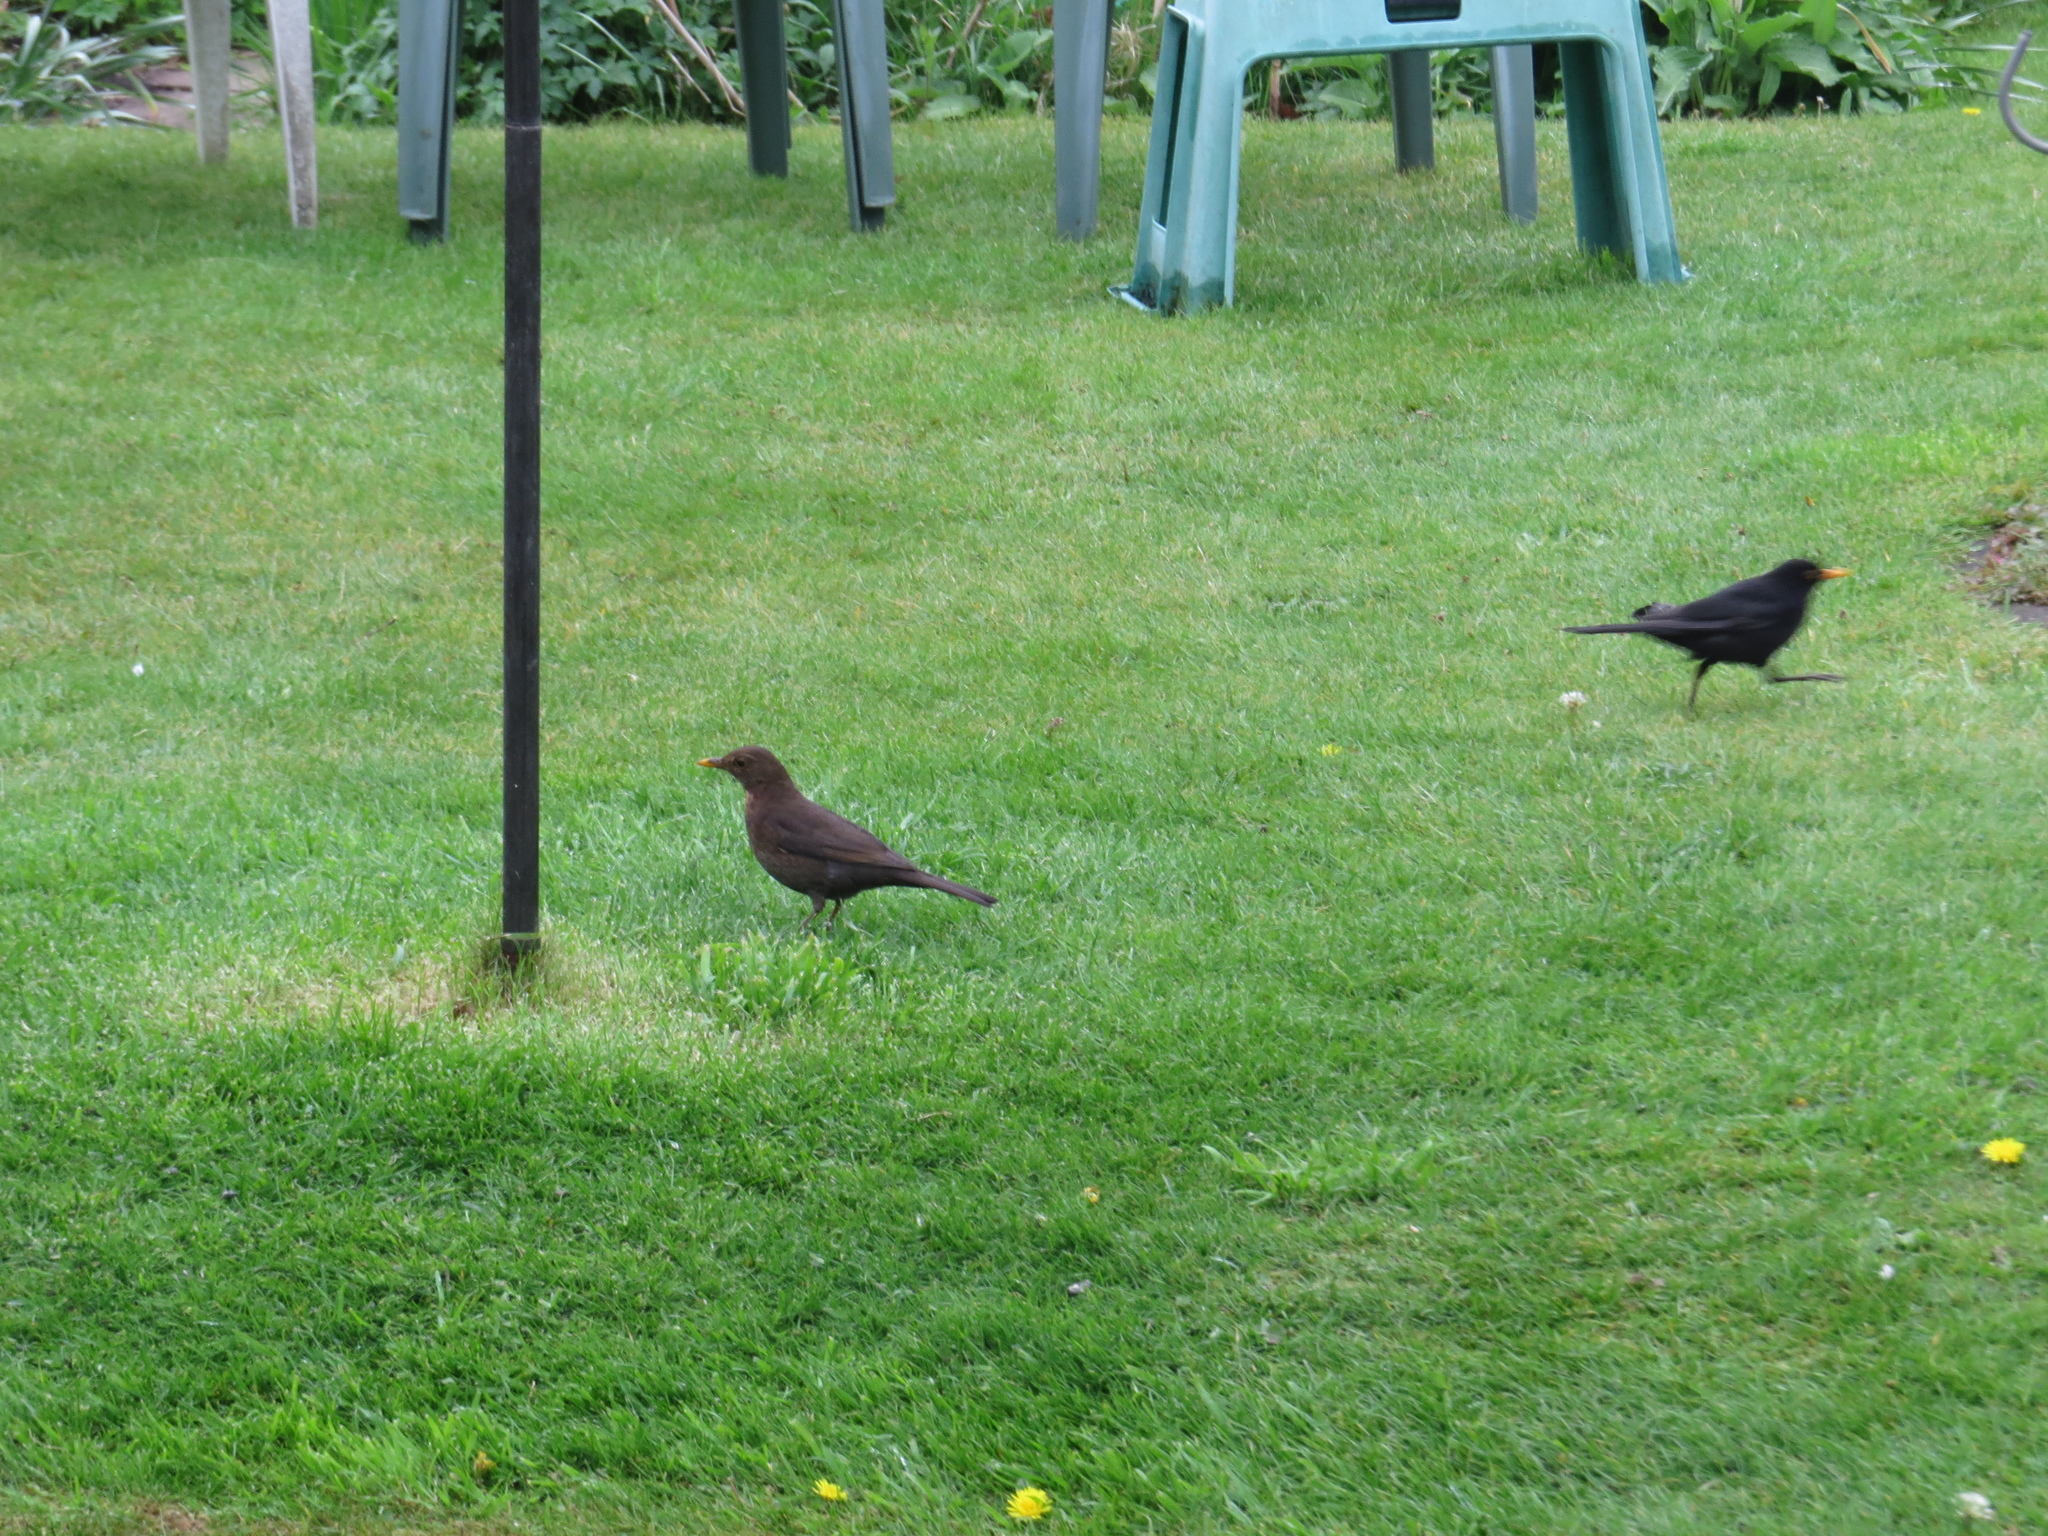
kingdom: Animalia
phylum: Chordata
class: Aves
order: Passeriformes
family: Turdidae
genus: Turdus
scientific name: Turdus merula
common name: Common blackbird
